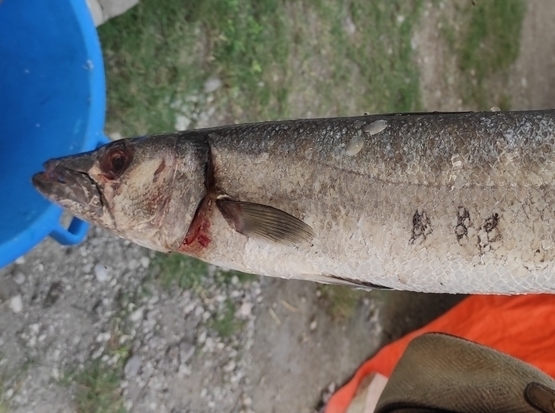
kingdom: Animalia
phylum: Chordata
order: Perciformes
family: Sphyraenidae
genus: Sphyraena
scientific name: Sphyraena barracuda
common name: Great barracuda
